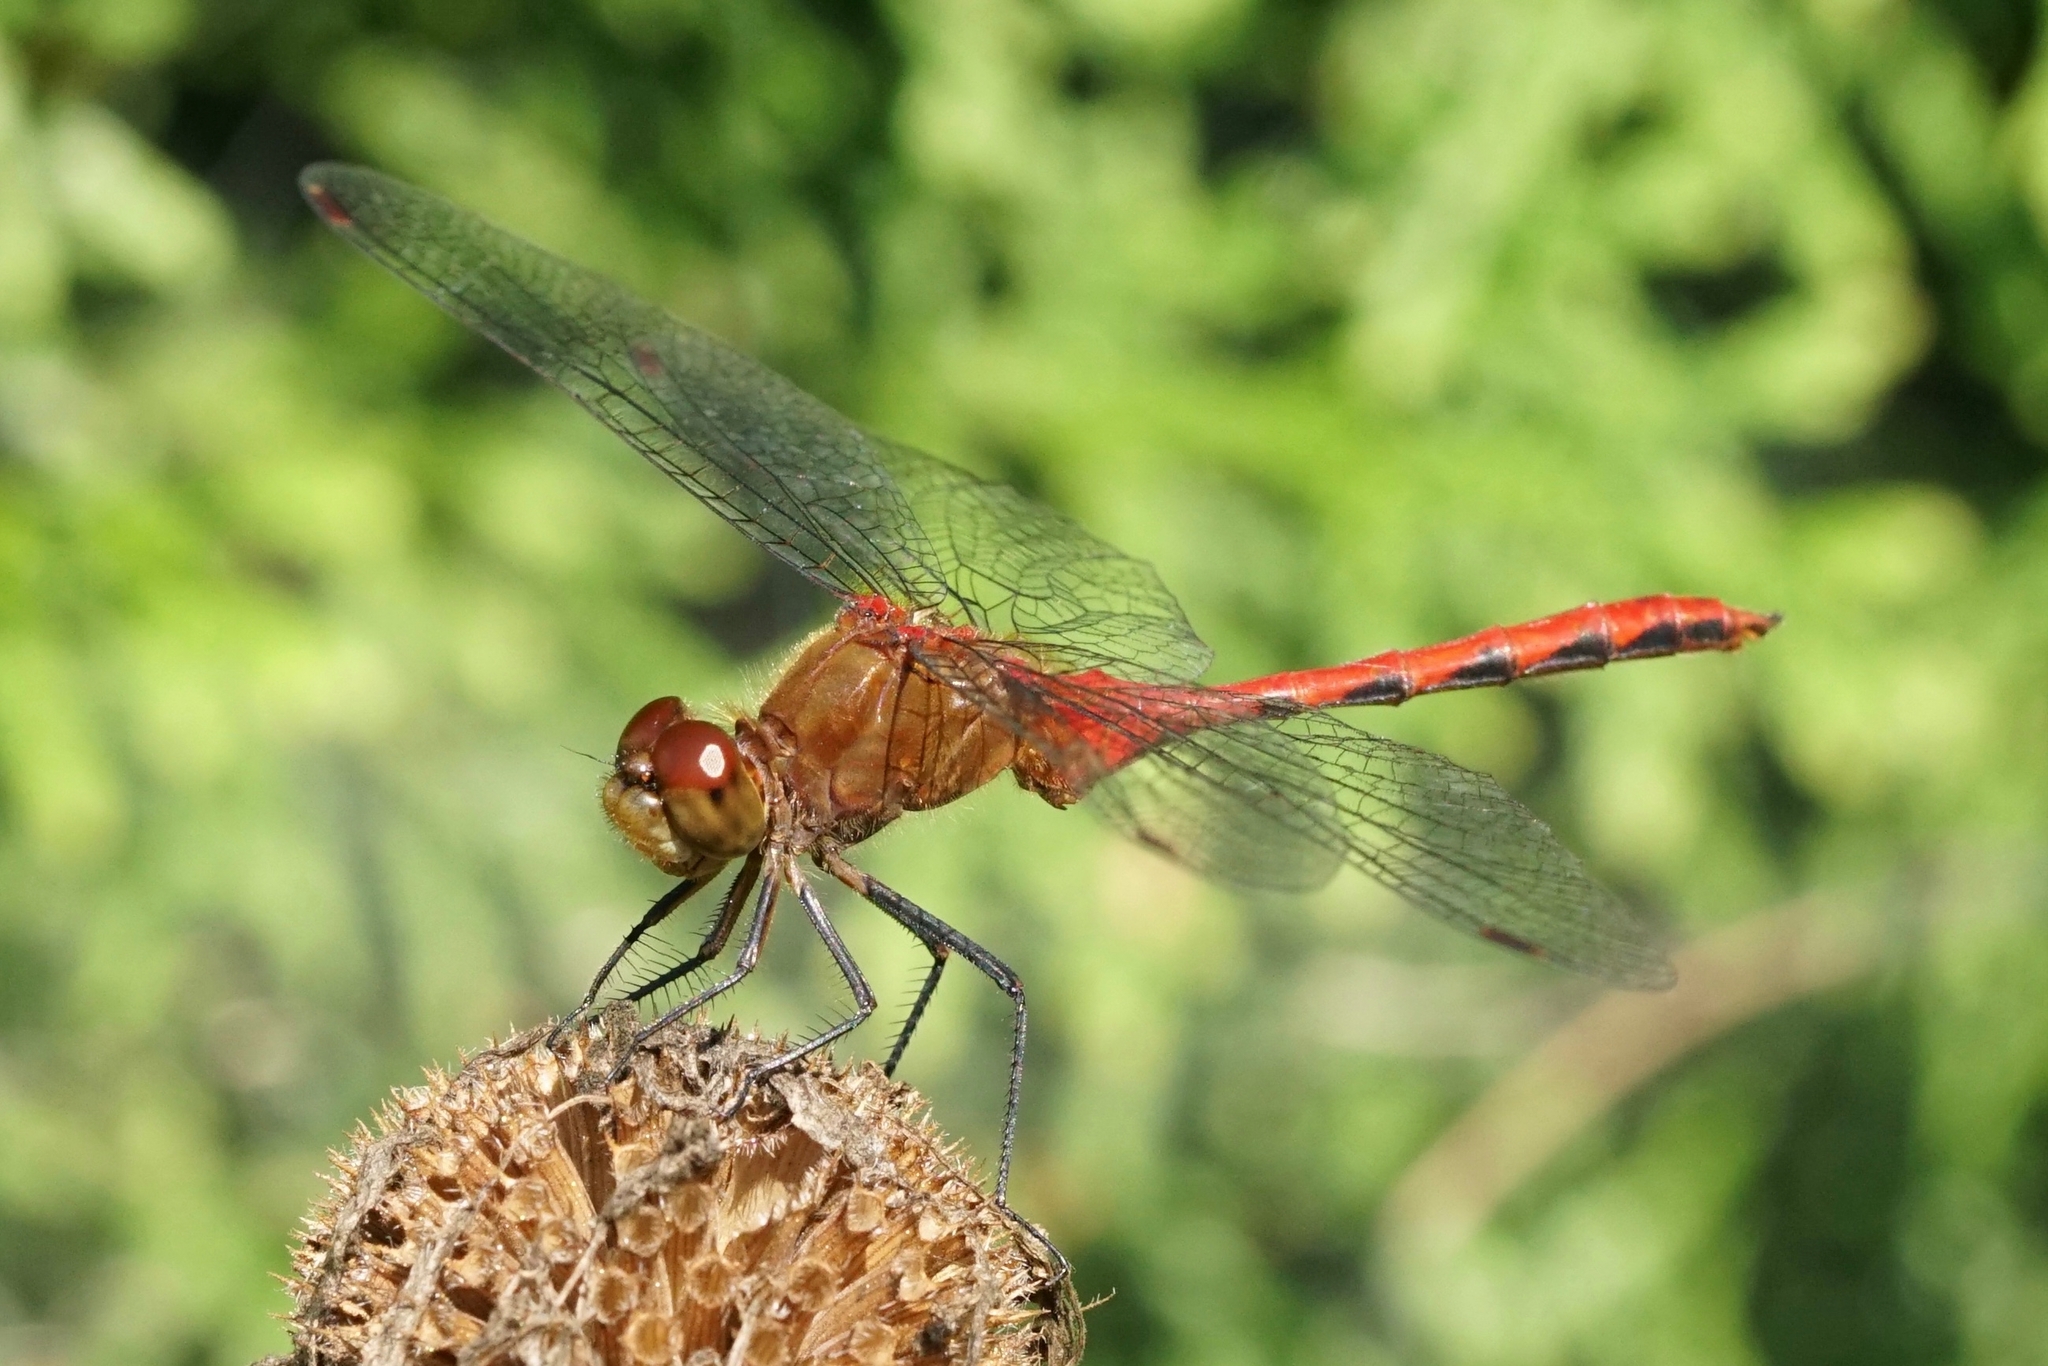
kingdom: Animalia
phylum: Arthropoda
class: Insecta
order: Odonata
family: Libellulidae
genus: Sympetrum
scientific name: Sympetrum
